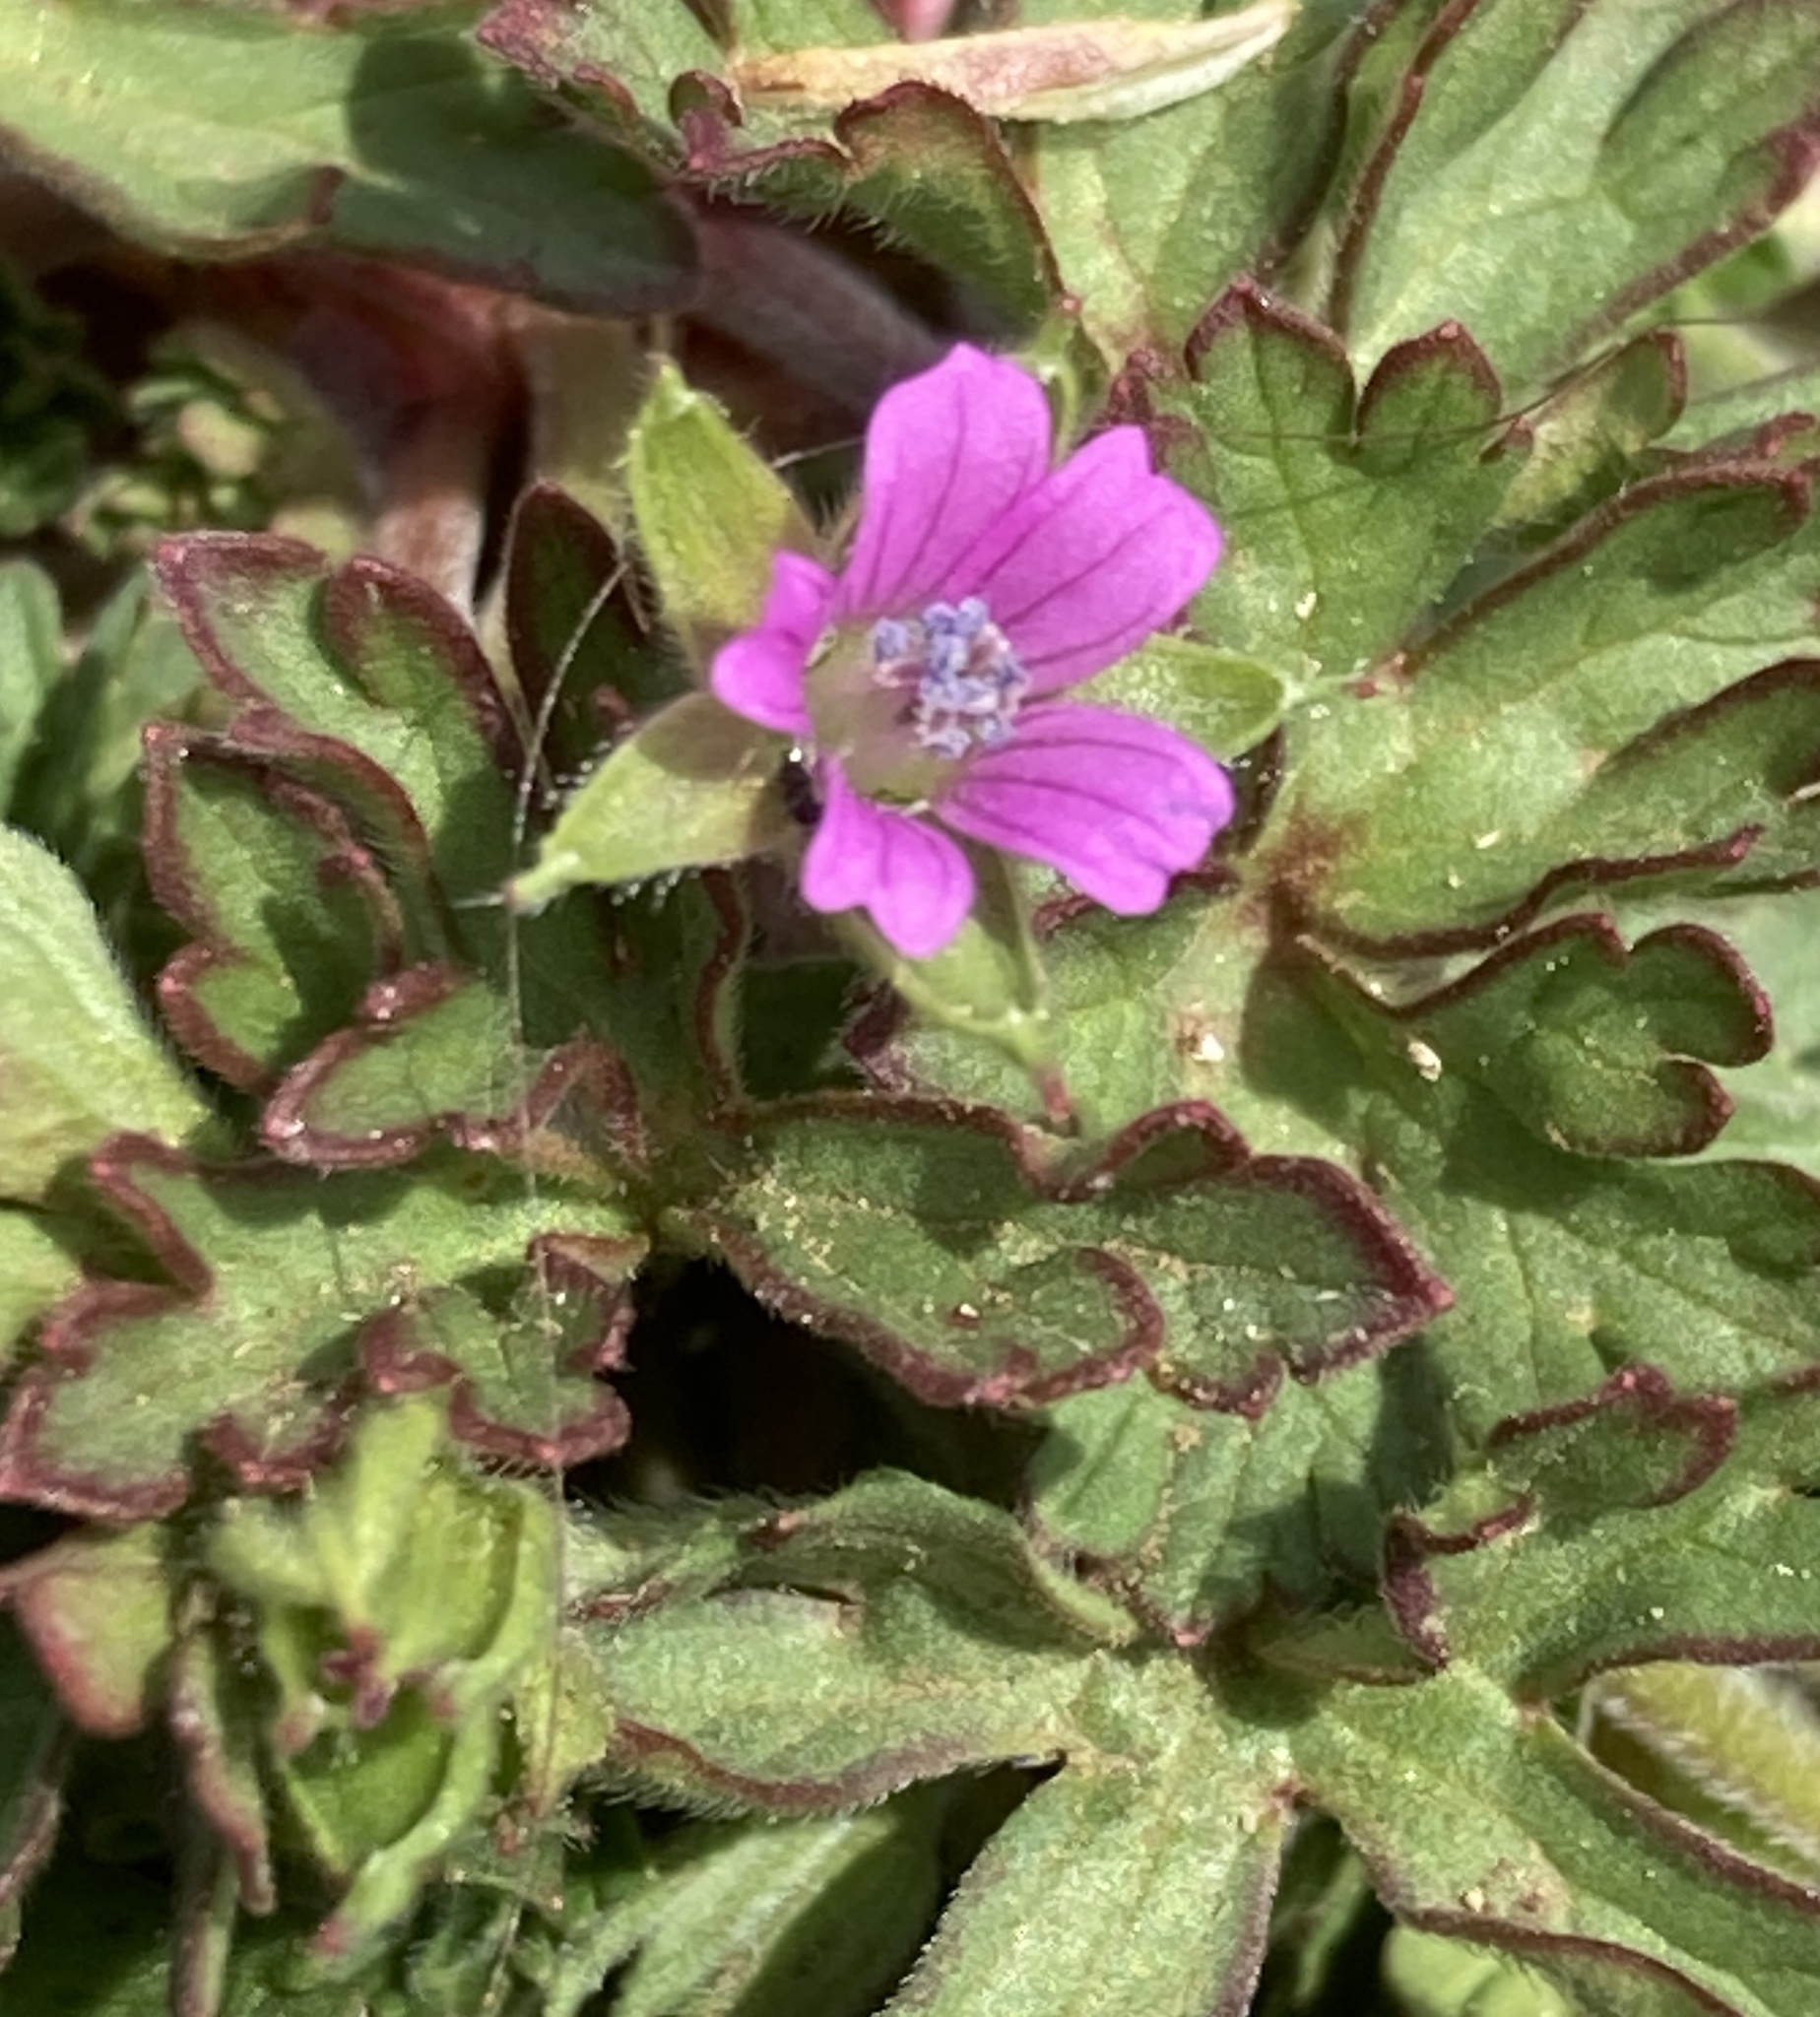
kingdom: Plantae
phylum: Tracheophyta
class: Magnoliopsida
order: Geraniales
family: Geraniaceae
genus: Geranium
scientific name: Geranium dissectum
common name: Cut-leaved crane's-bill
